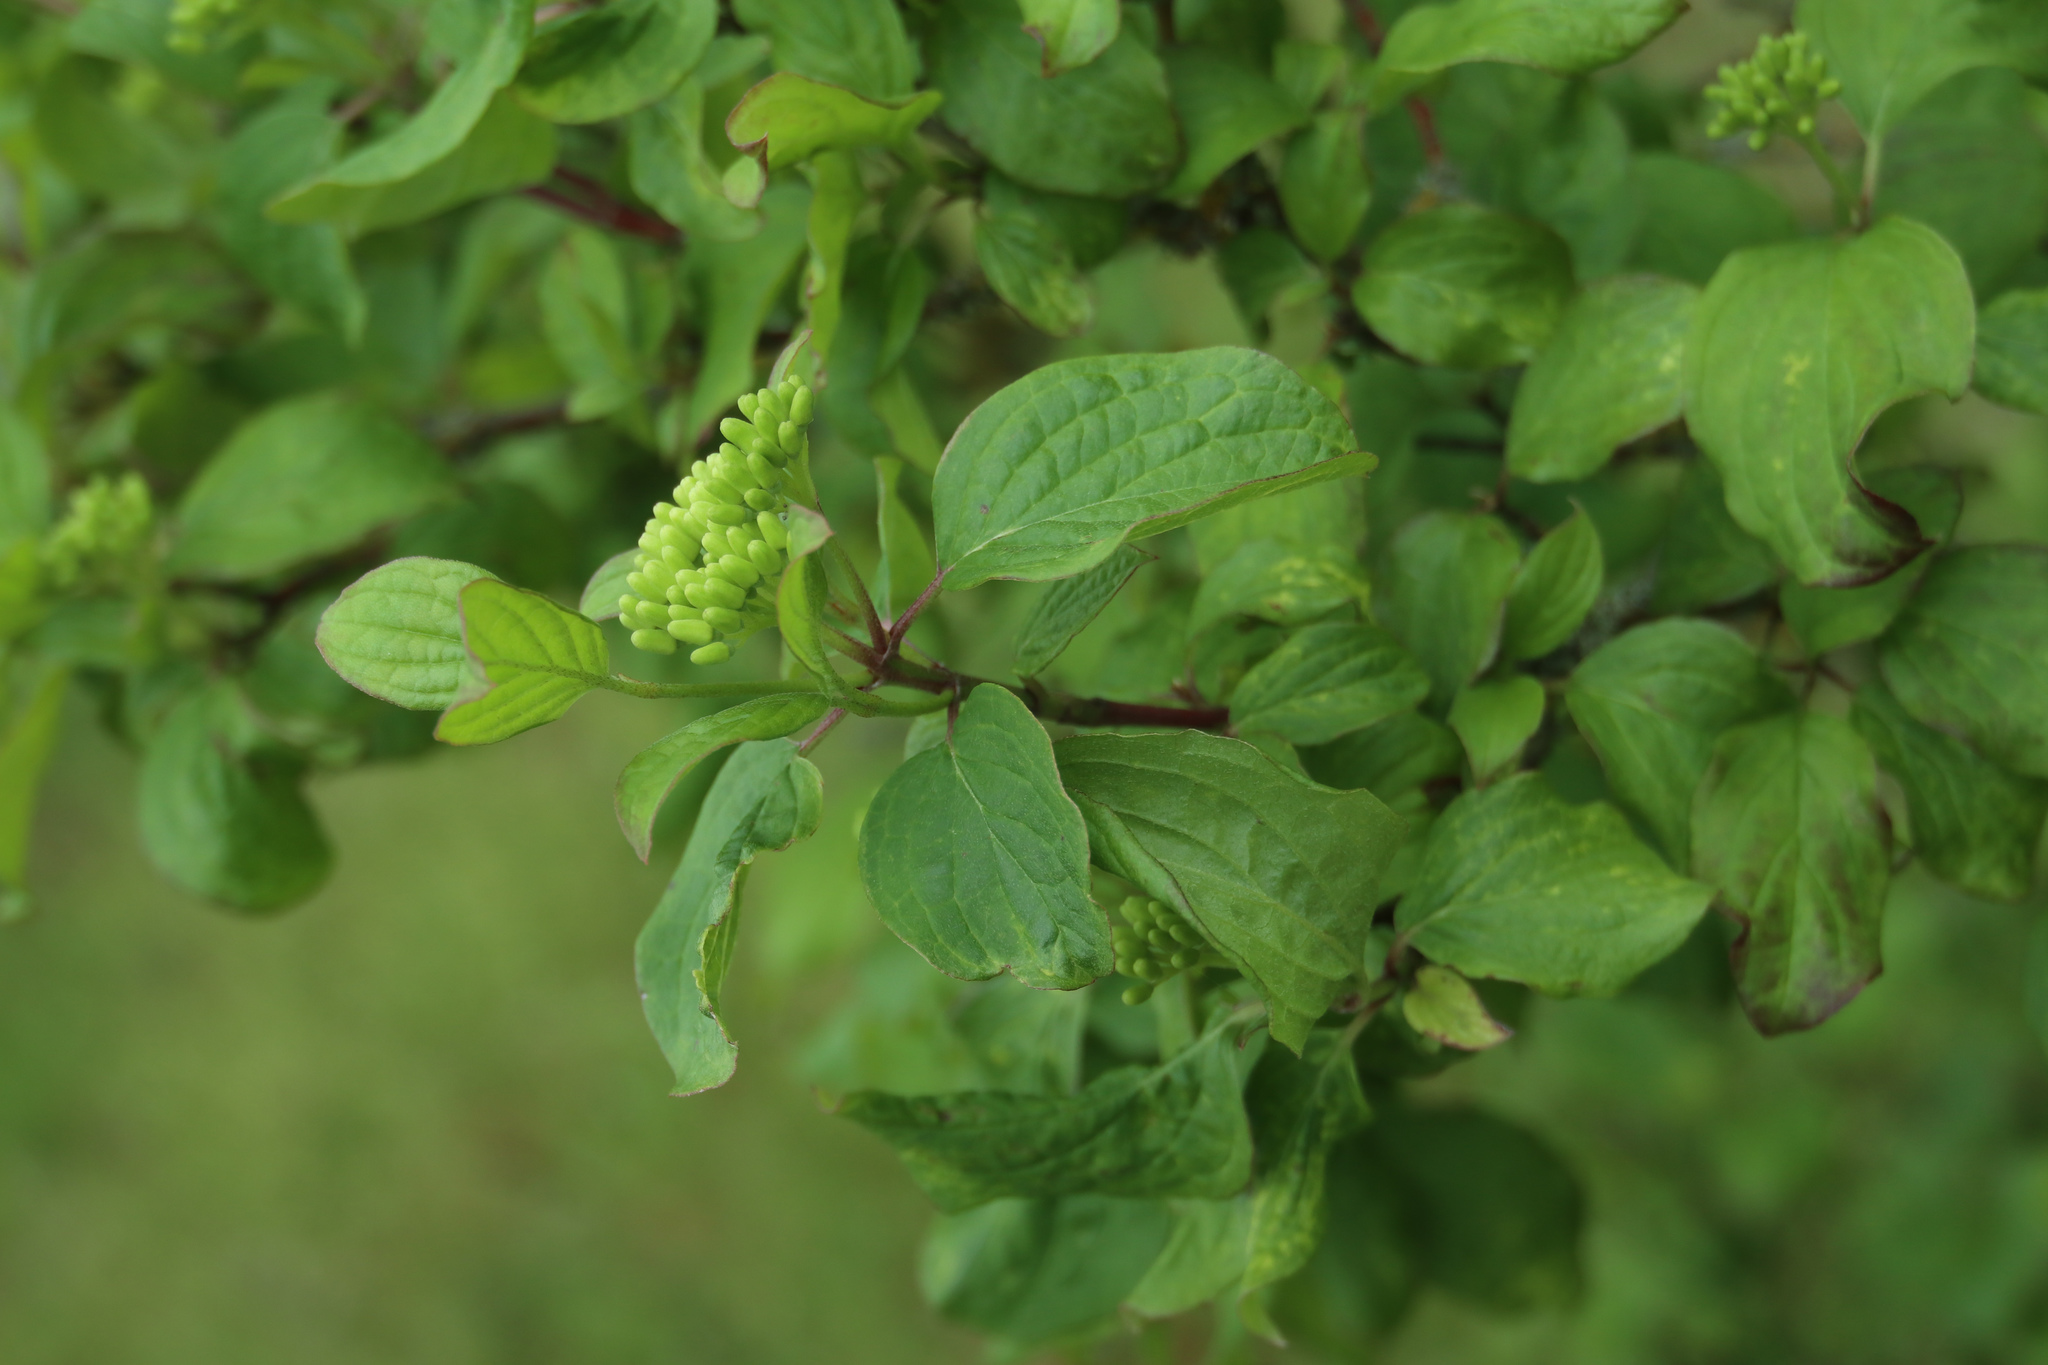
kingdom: Plantae
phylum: Tracheophyta
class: Magnoliopsida
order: Cornales
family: Cornaceae
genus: Cornus
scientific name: Cornus sanguinea
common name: Dogwood
